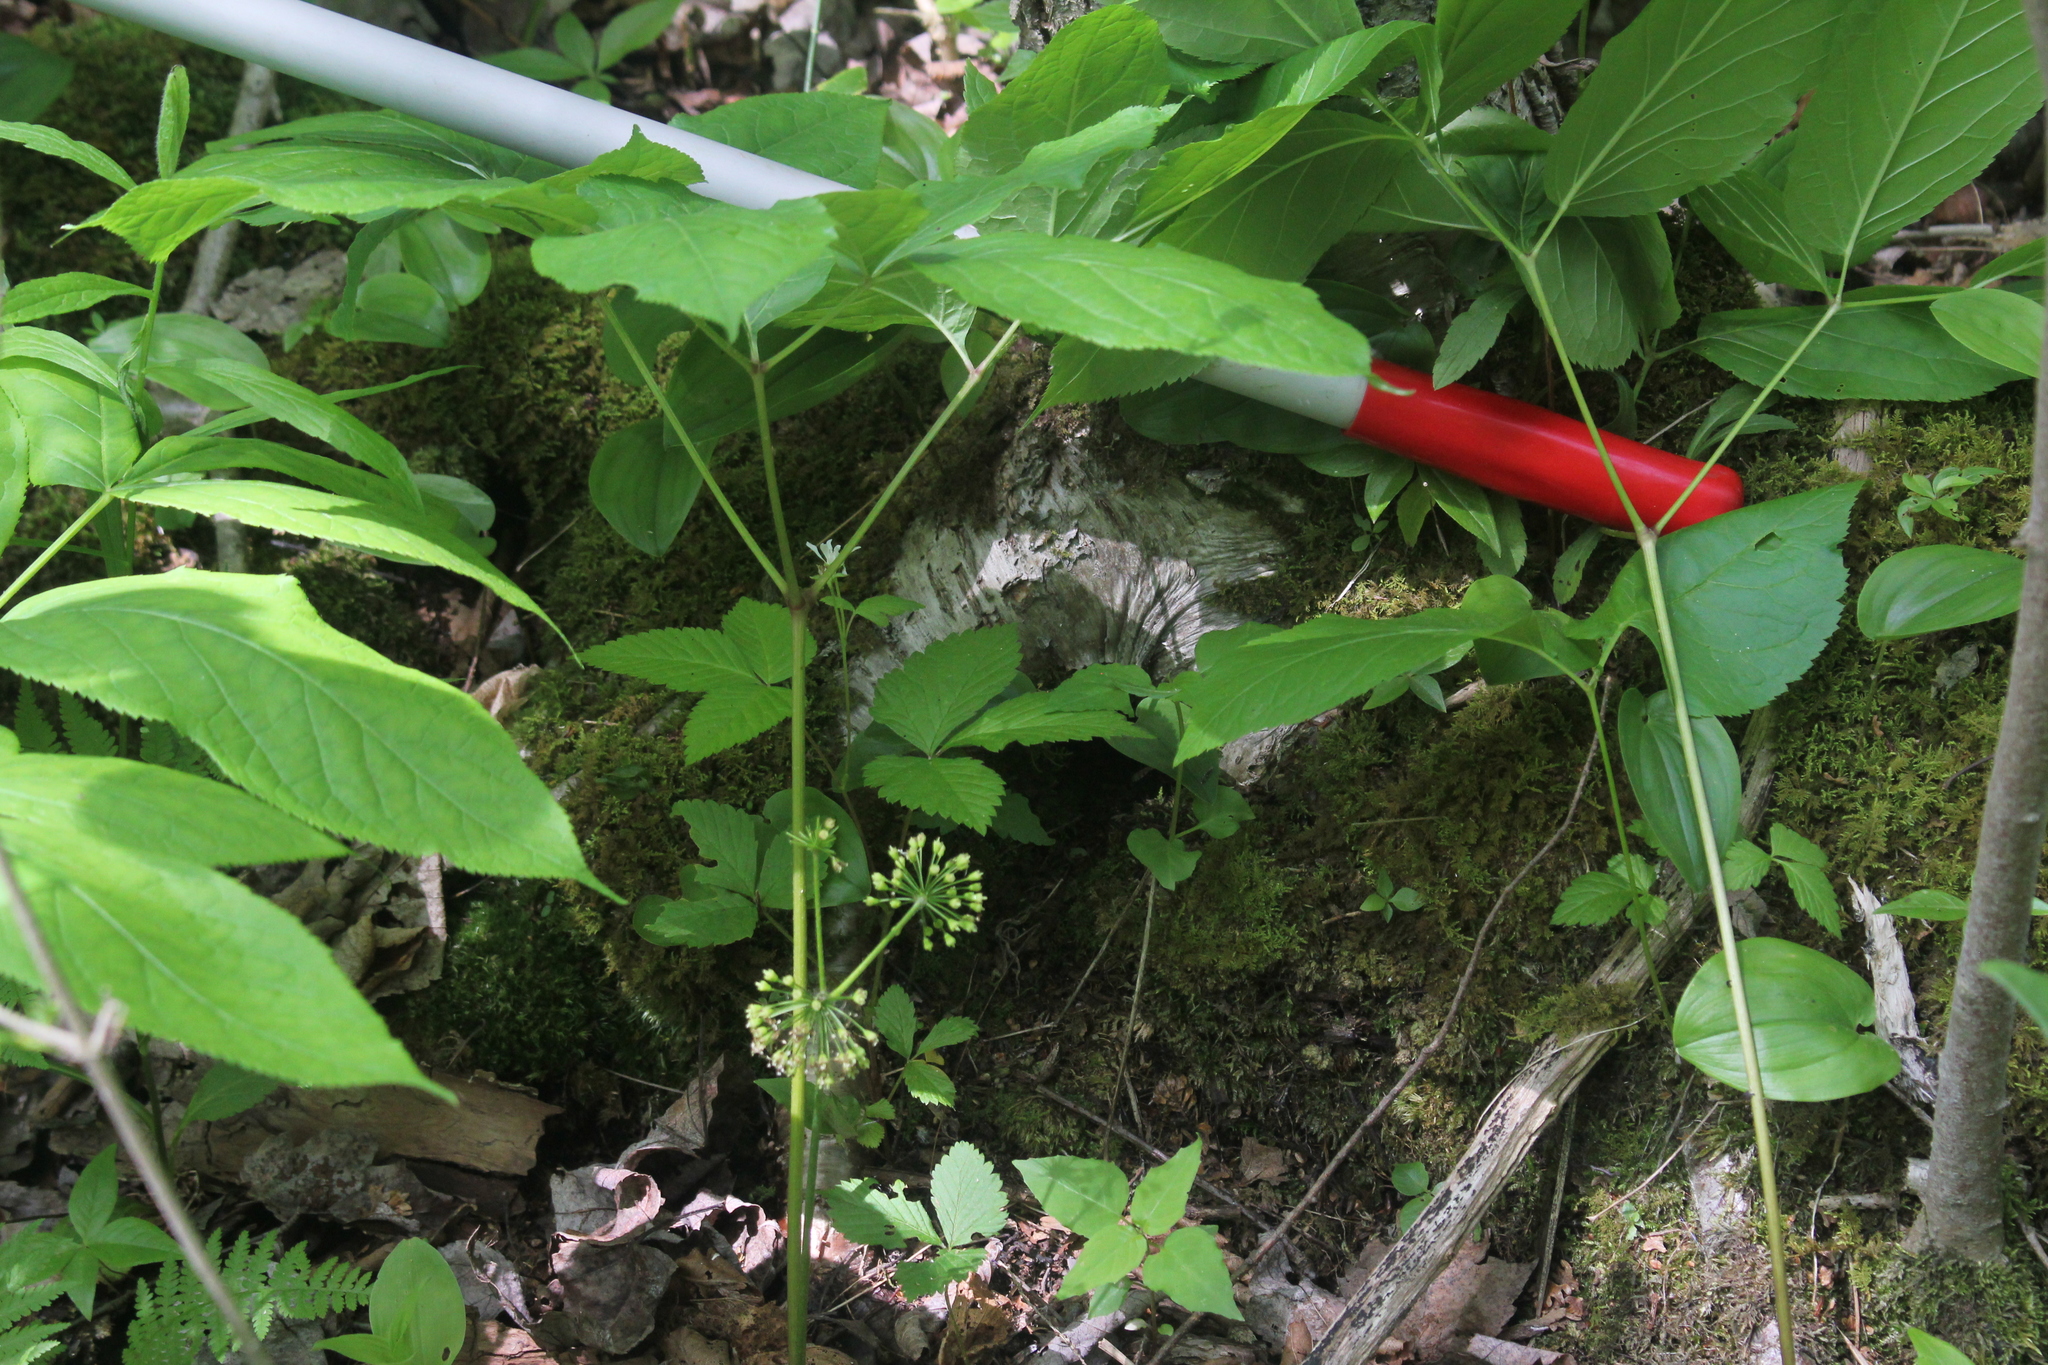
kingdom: Plantae
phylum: Tracheophyta
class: Magnoliopsida
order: Apiales
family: Araliaceae
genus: Aralia
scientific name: Aralia nudicaulis
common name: Wild sarsaparilla
